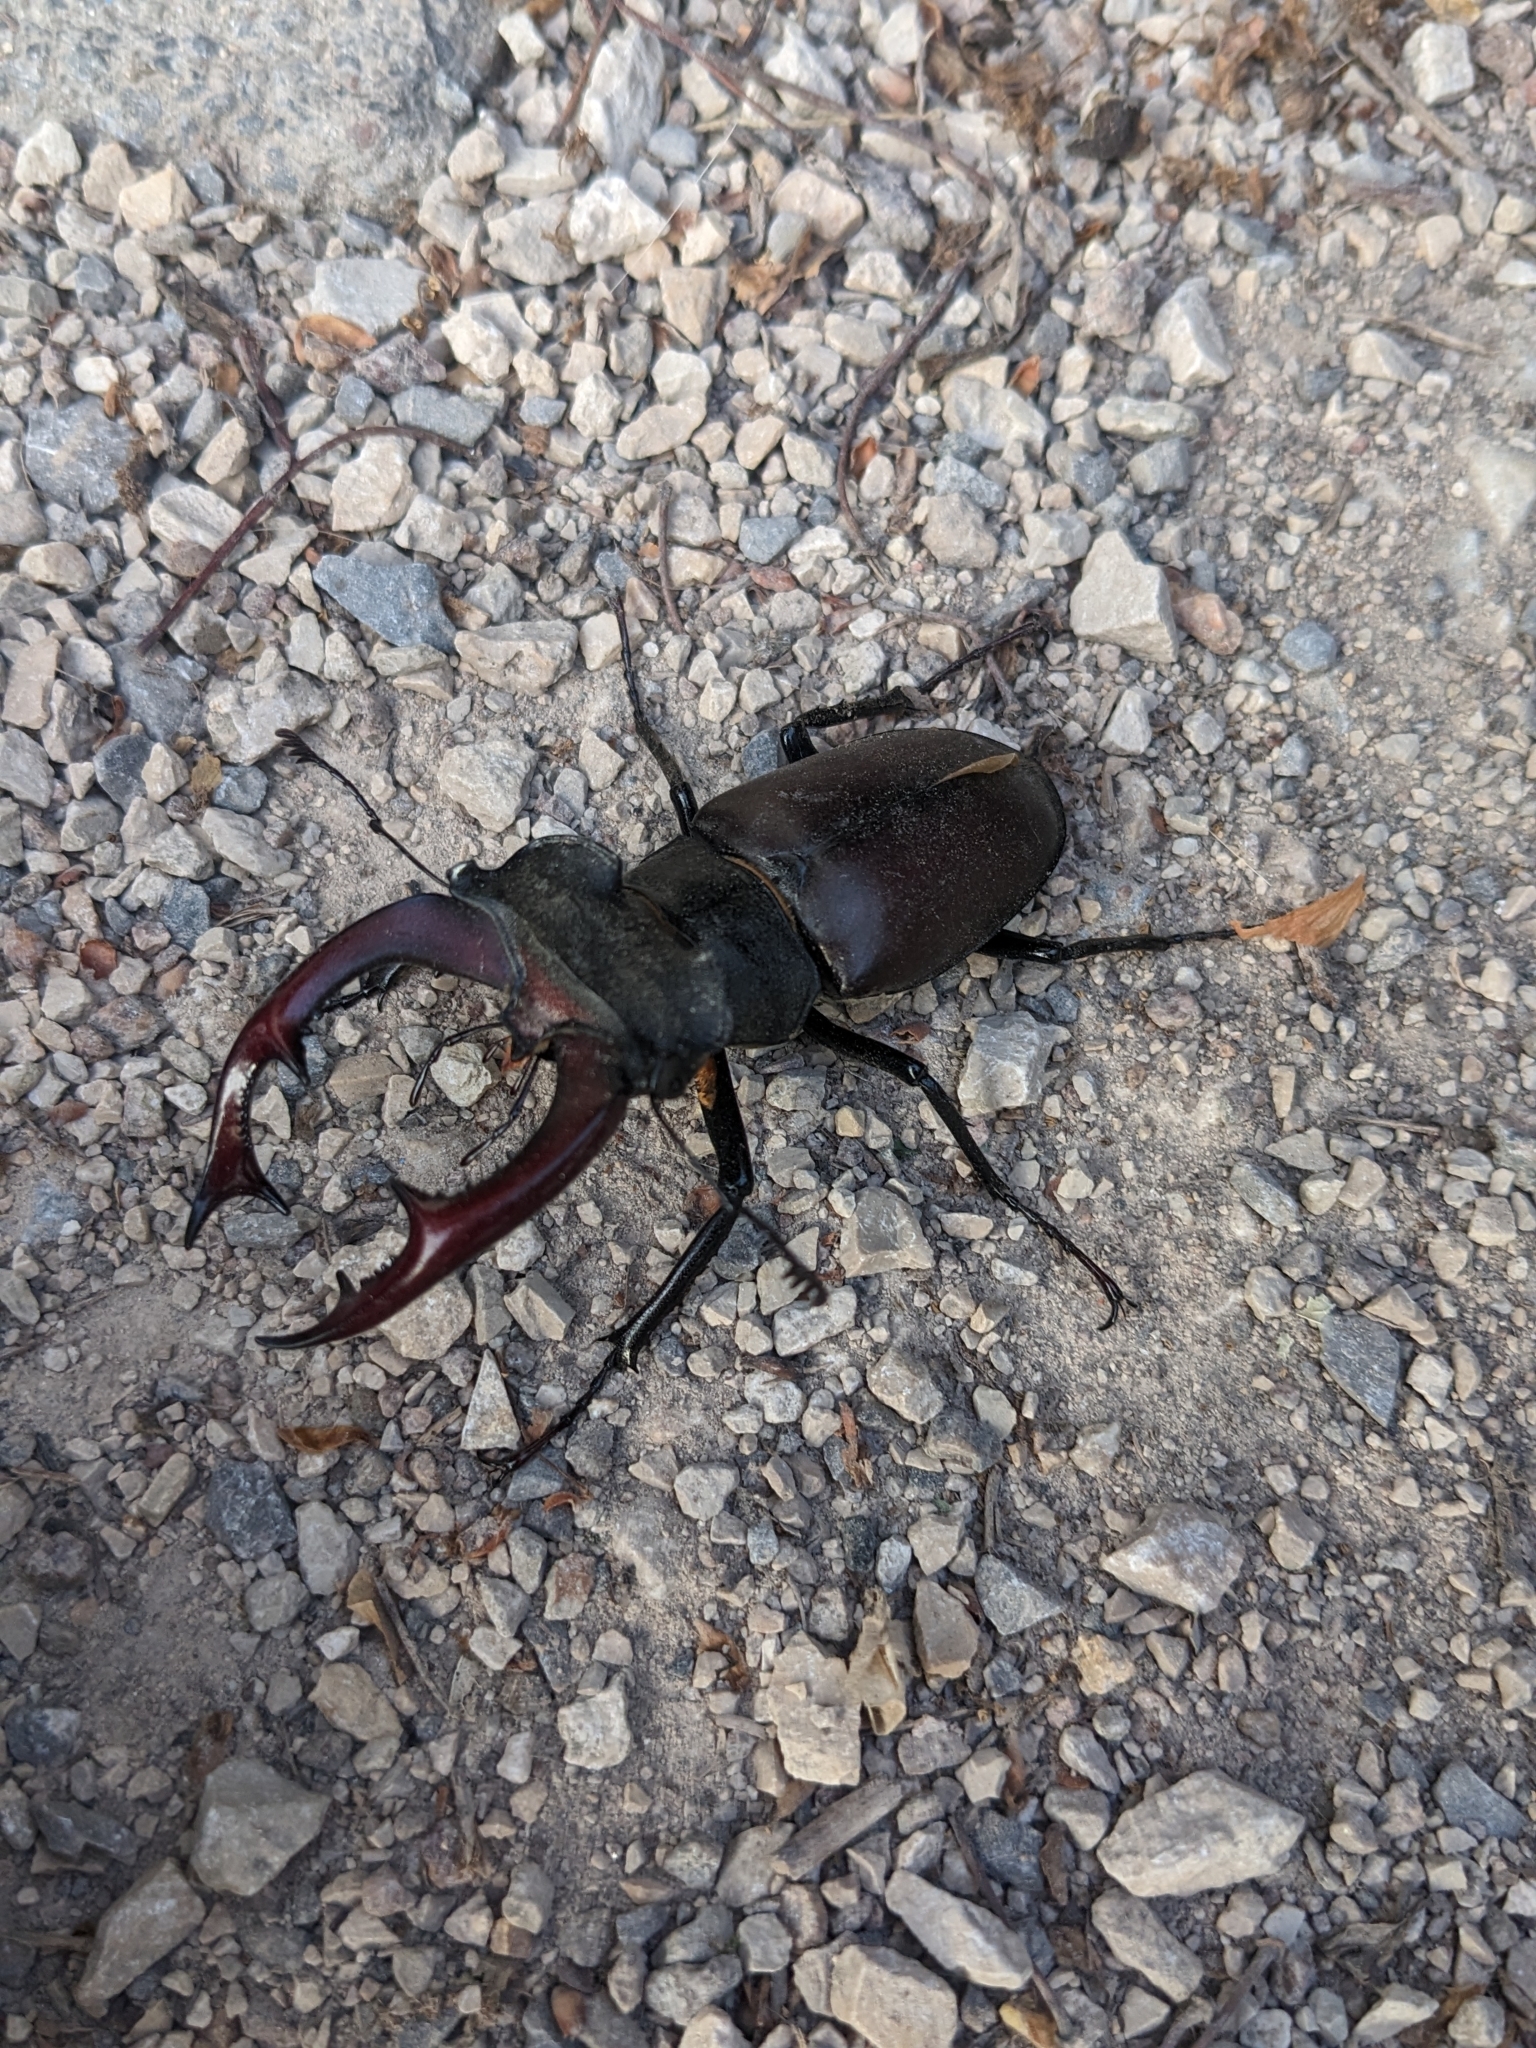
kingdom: Animalia
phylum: Arthropoda
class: Insecta
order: Coleoptera
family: Lucanidae
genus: Lucanus
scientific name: Lucanus cervus
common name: Stag beetle
